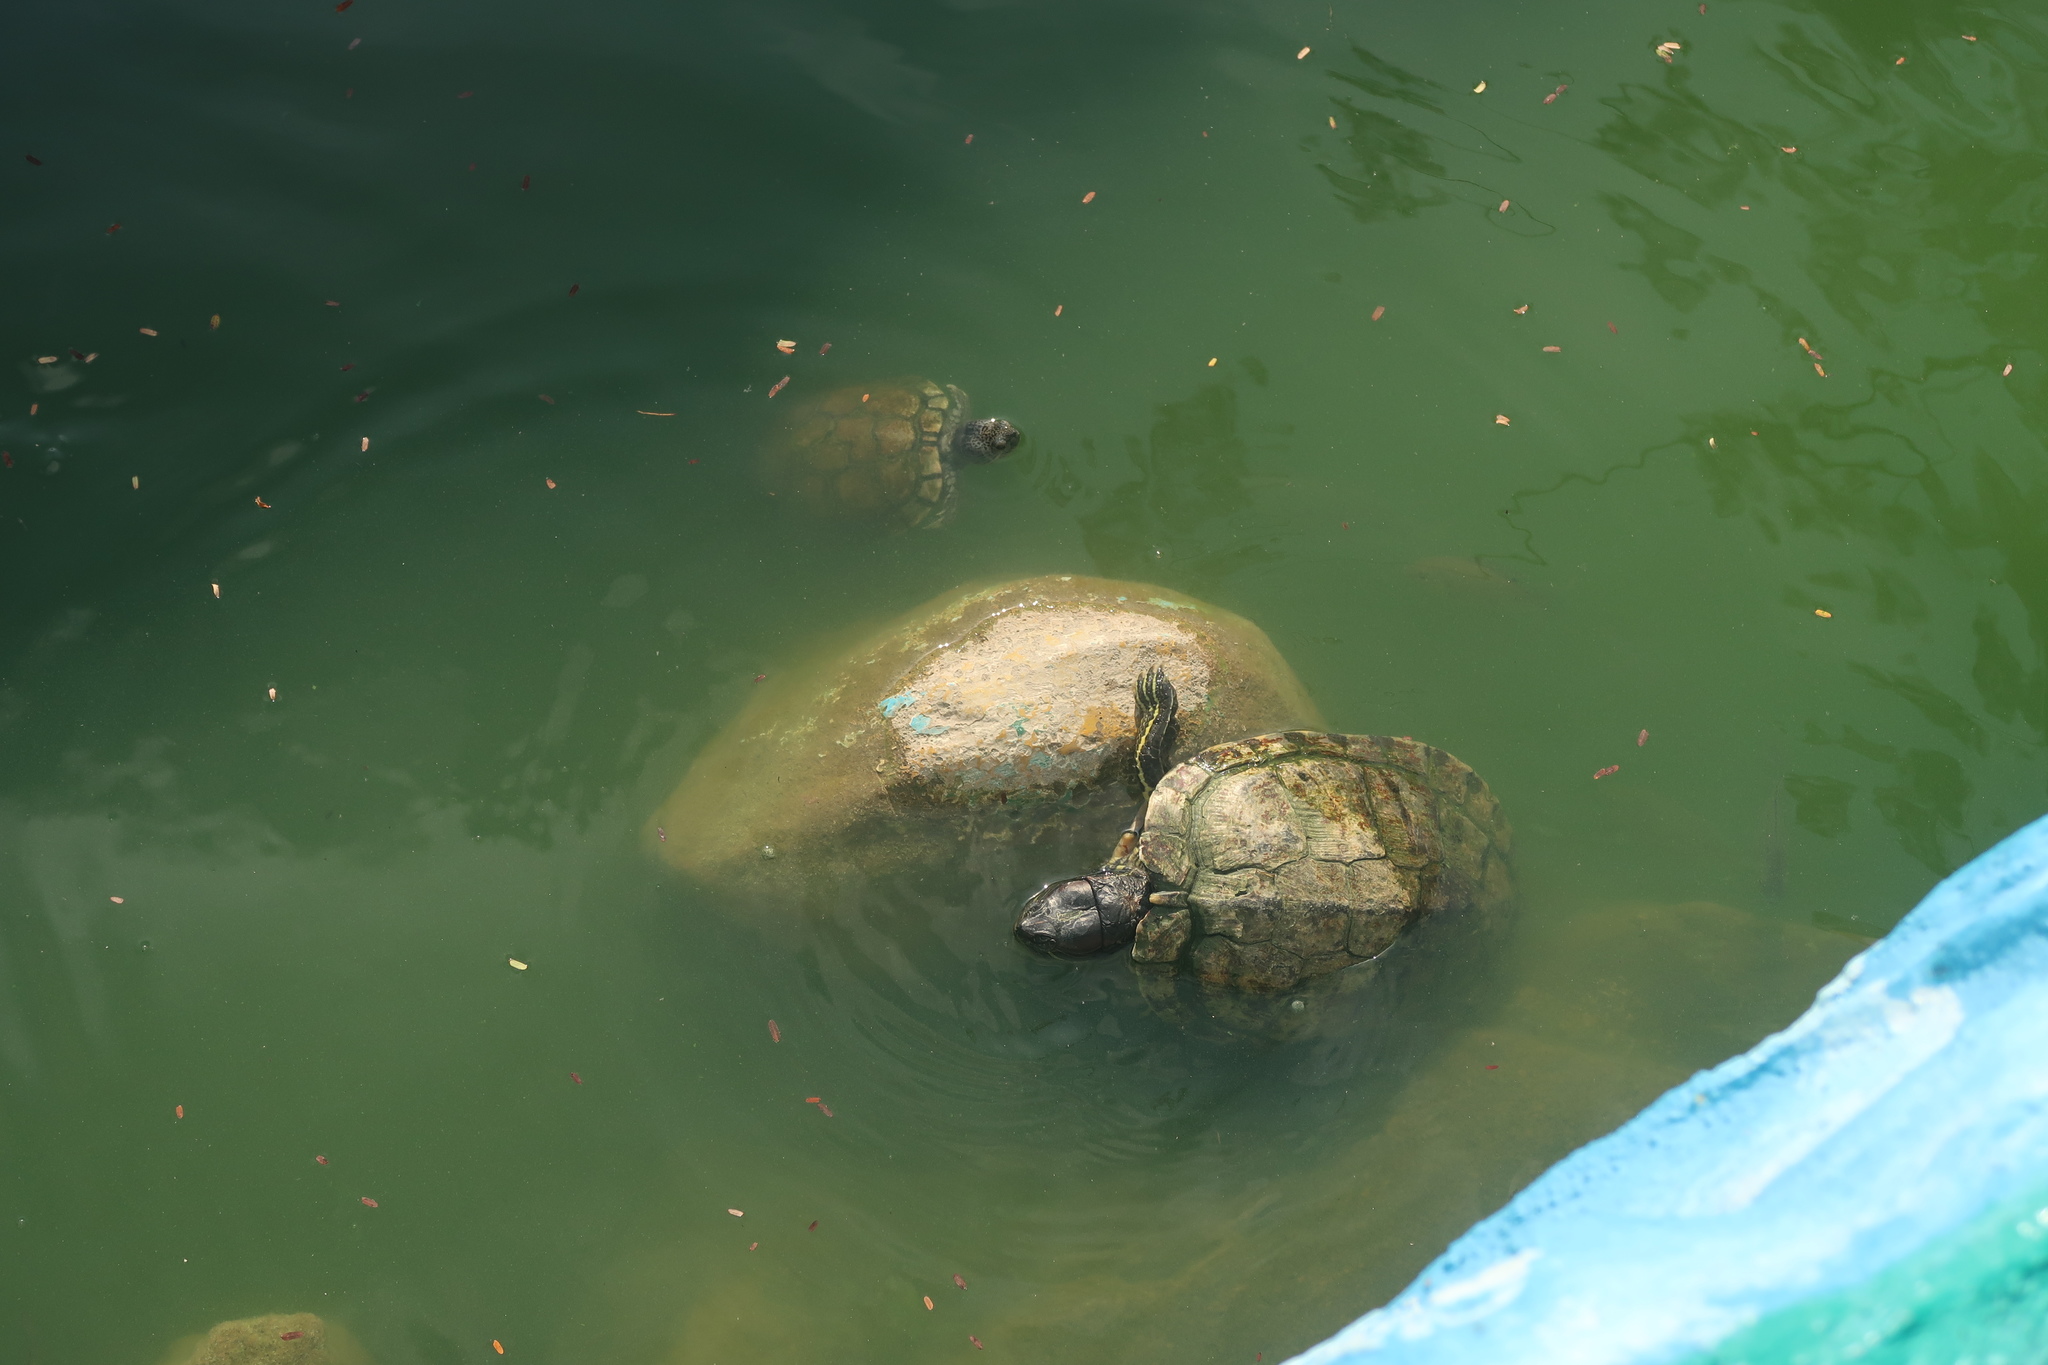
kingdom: Animalia
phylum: Chordata
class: Testudines
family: Emydidae
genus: Trachemys
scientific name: Trachemys scripta
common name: Slider
